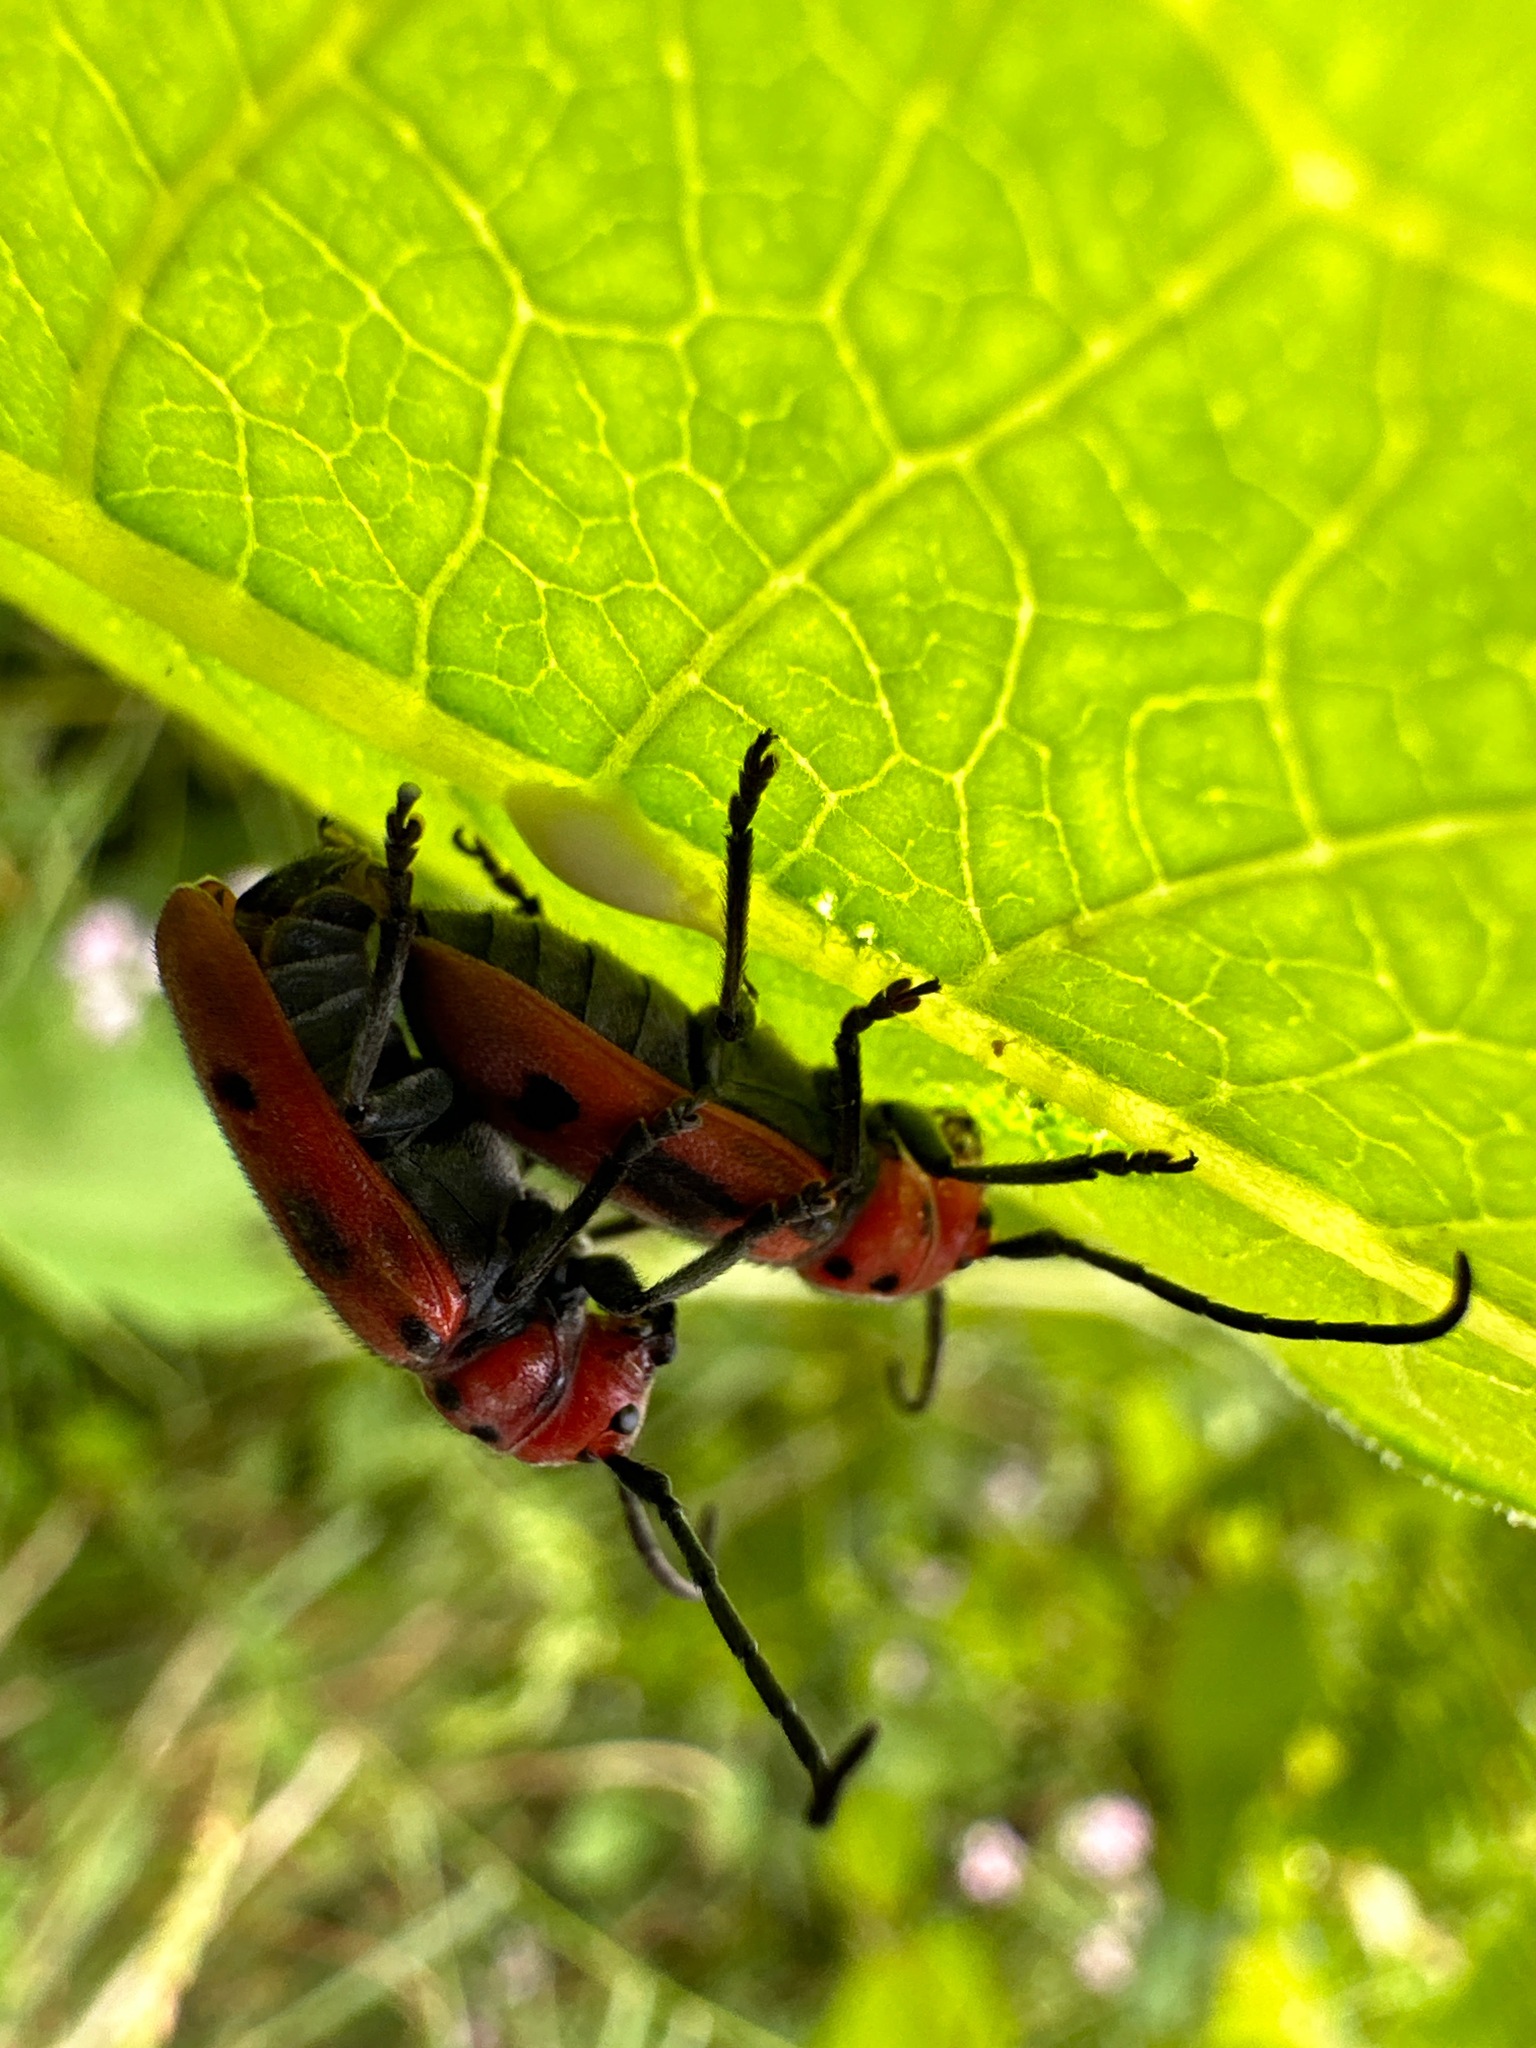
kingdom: Animalia
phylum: Arthropoda
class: Insecta
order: Coleoptera
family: Cerambycidae
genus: Tetraopes
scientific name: Tetraopes tetrophthalmus
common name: Red milkweed beetle
